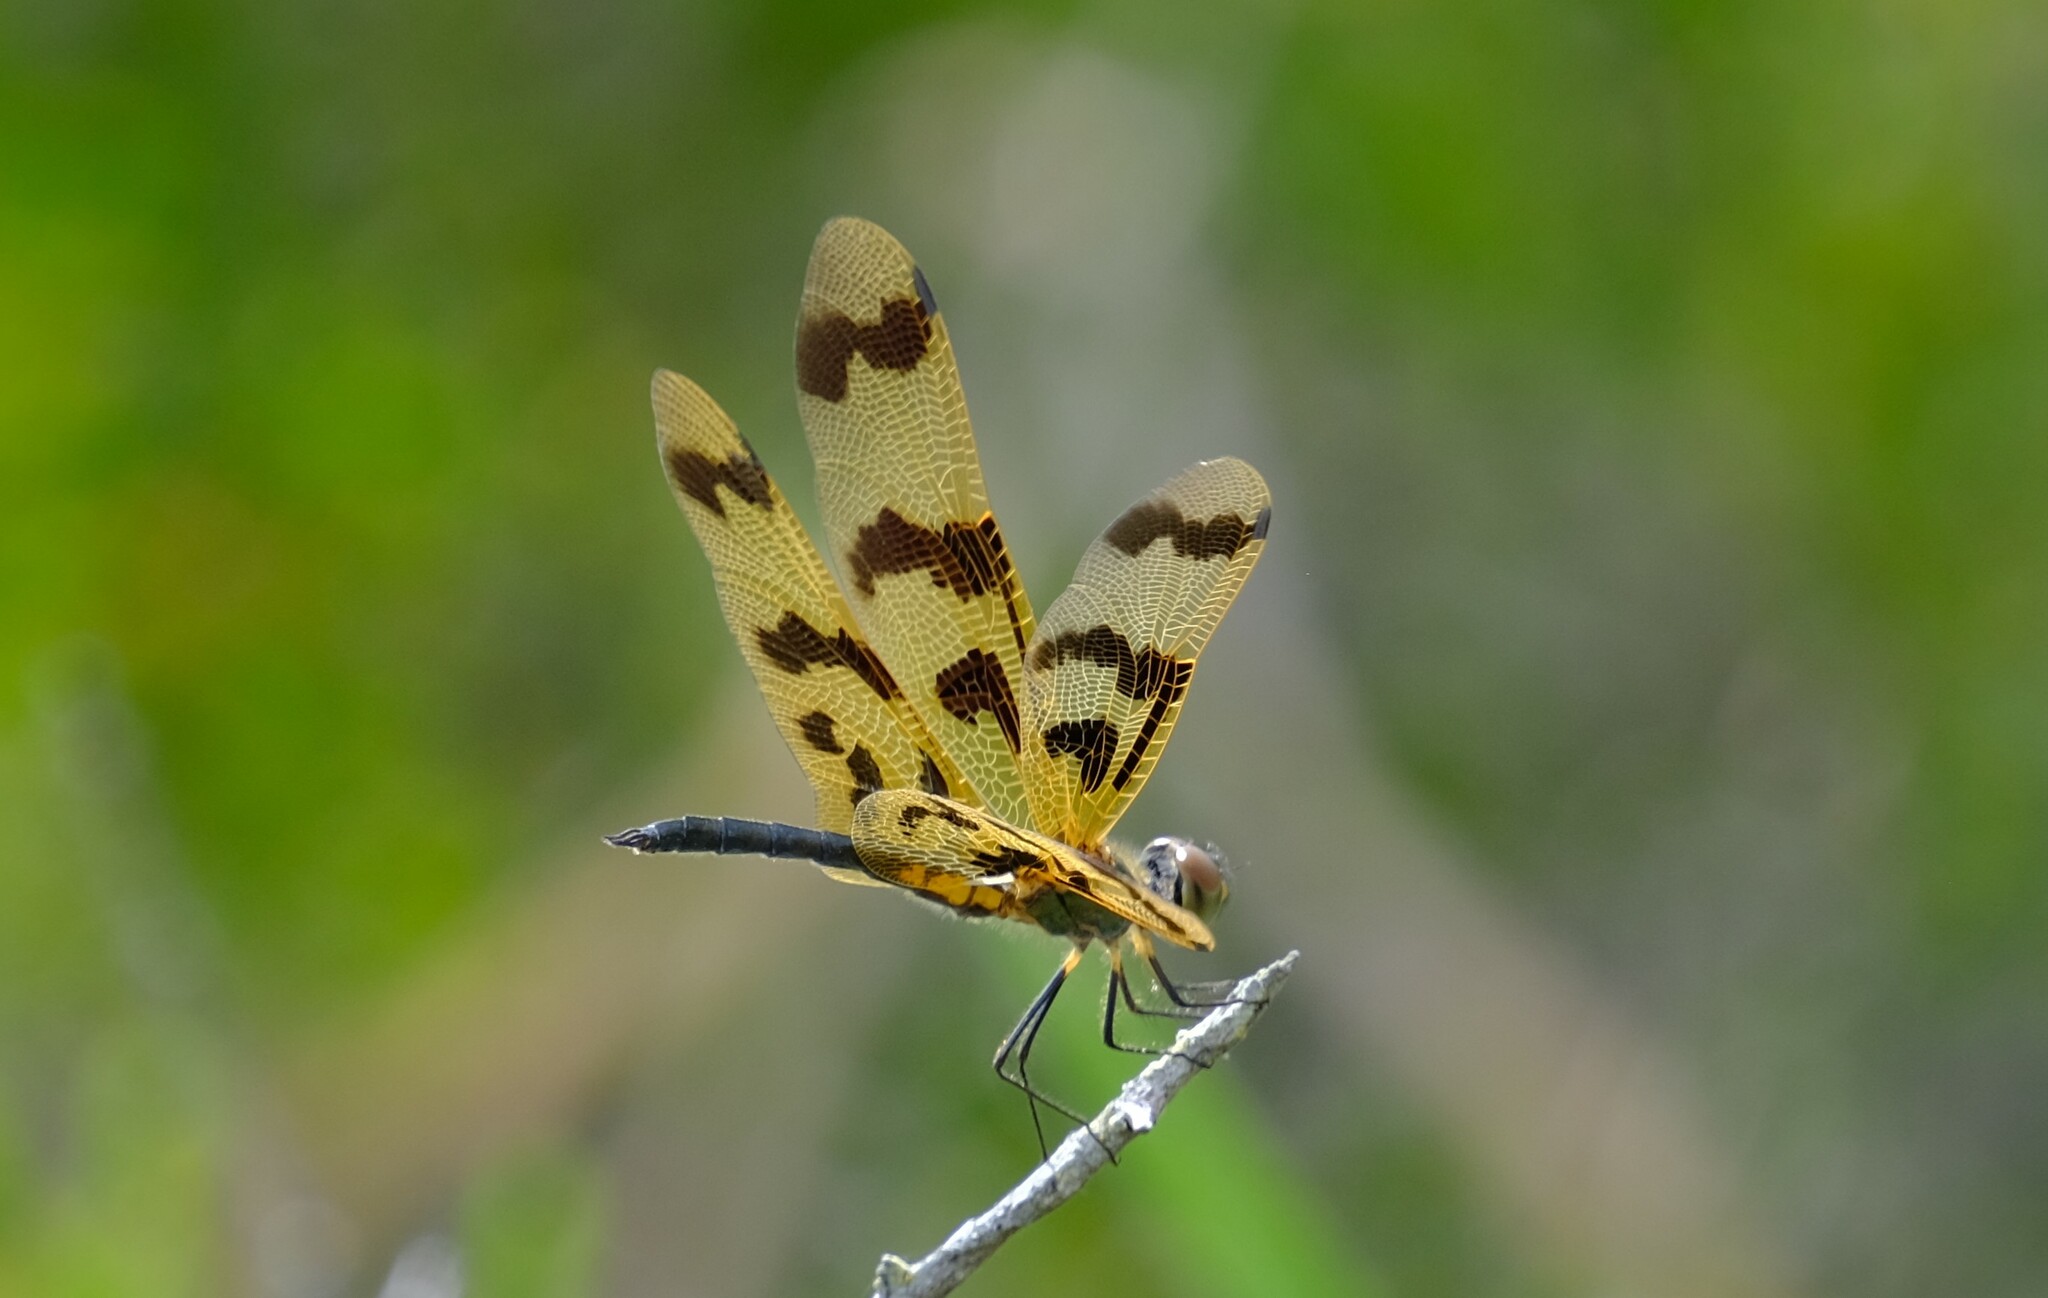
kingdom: Animalia
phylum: Arthropoda
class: Insecta
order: Odonata
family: Libellulidae
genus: Rhyothemis
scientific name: Rhyothemis graphiptera
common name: Graphic flutterer
